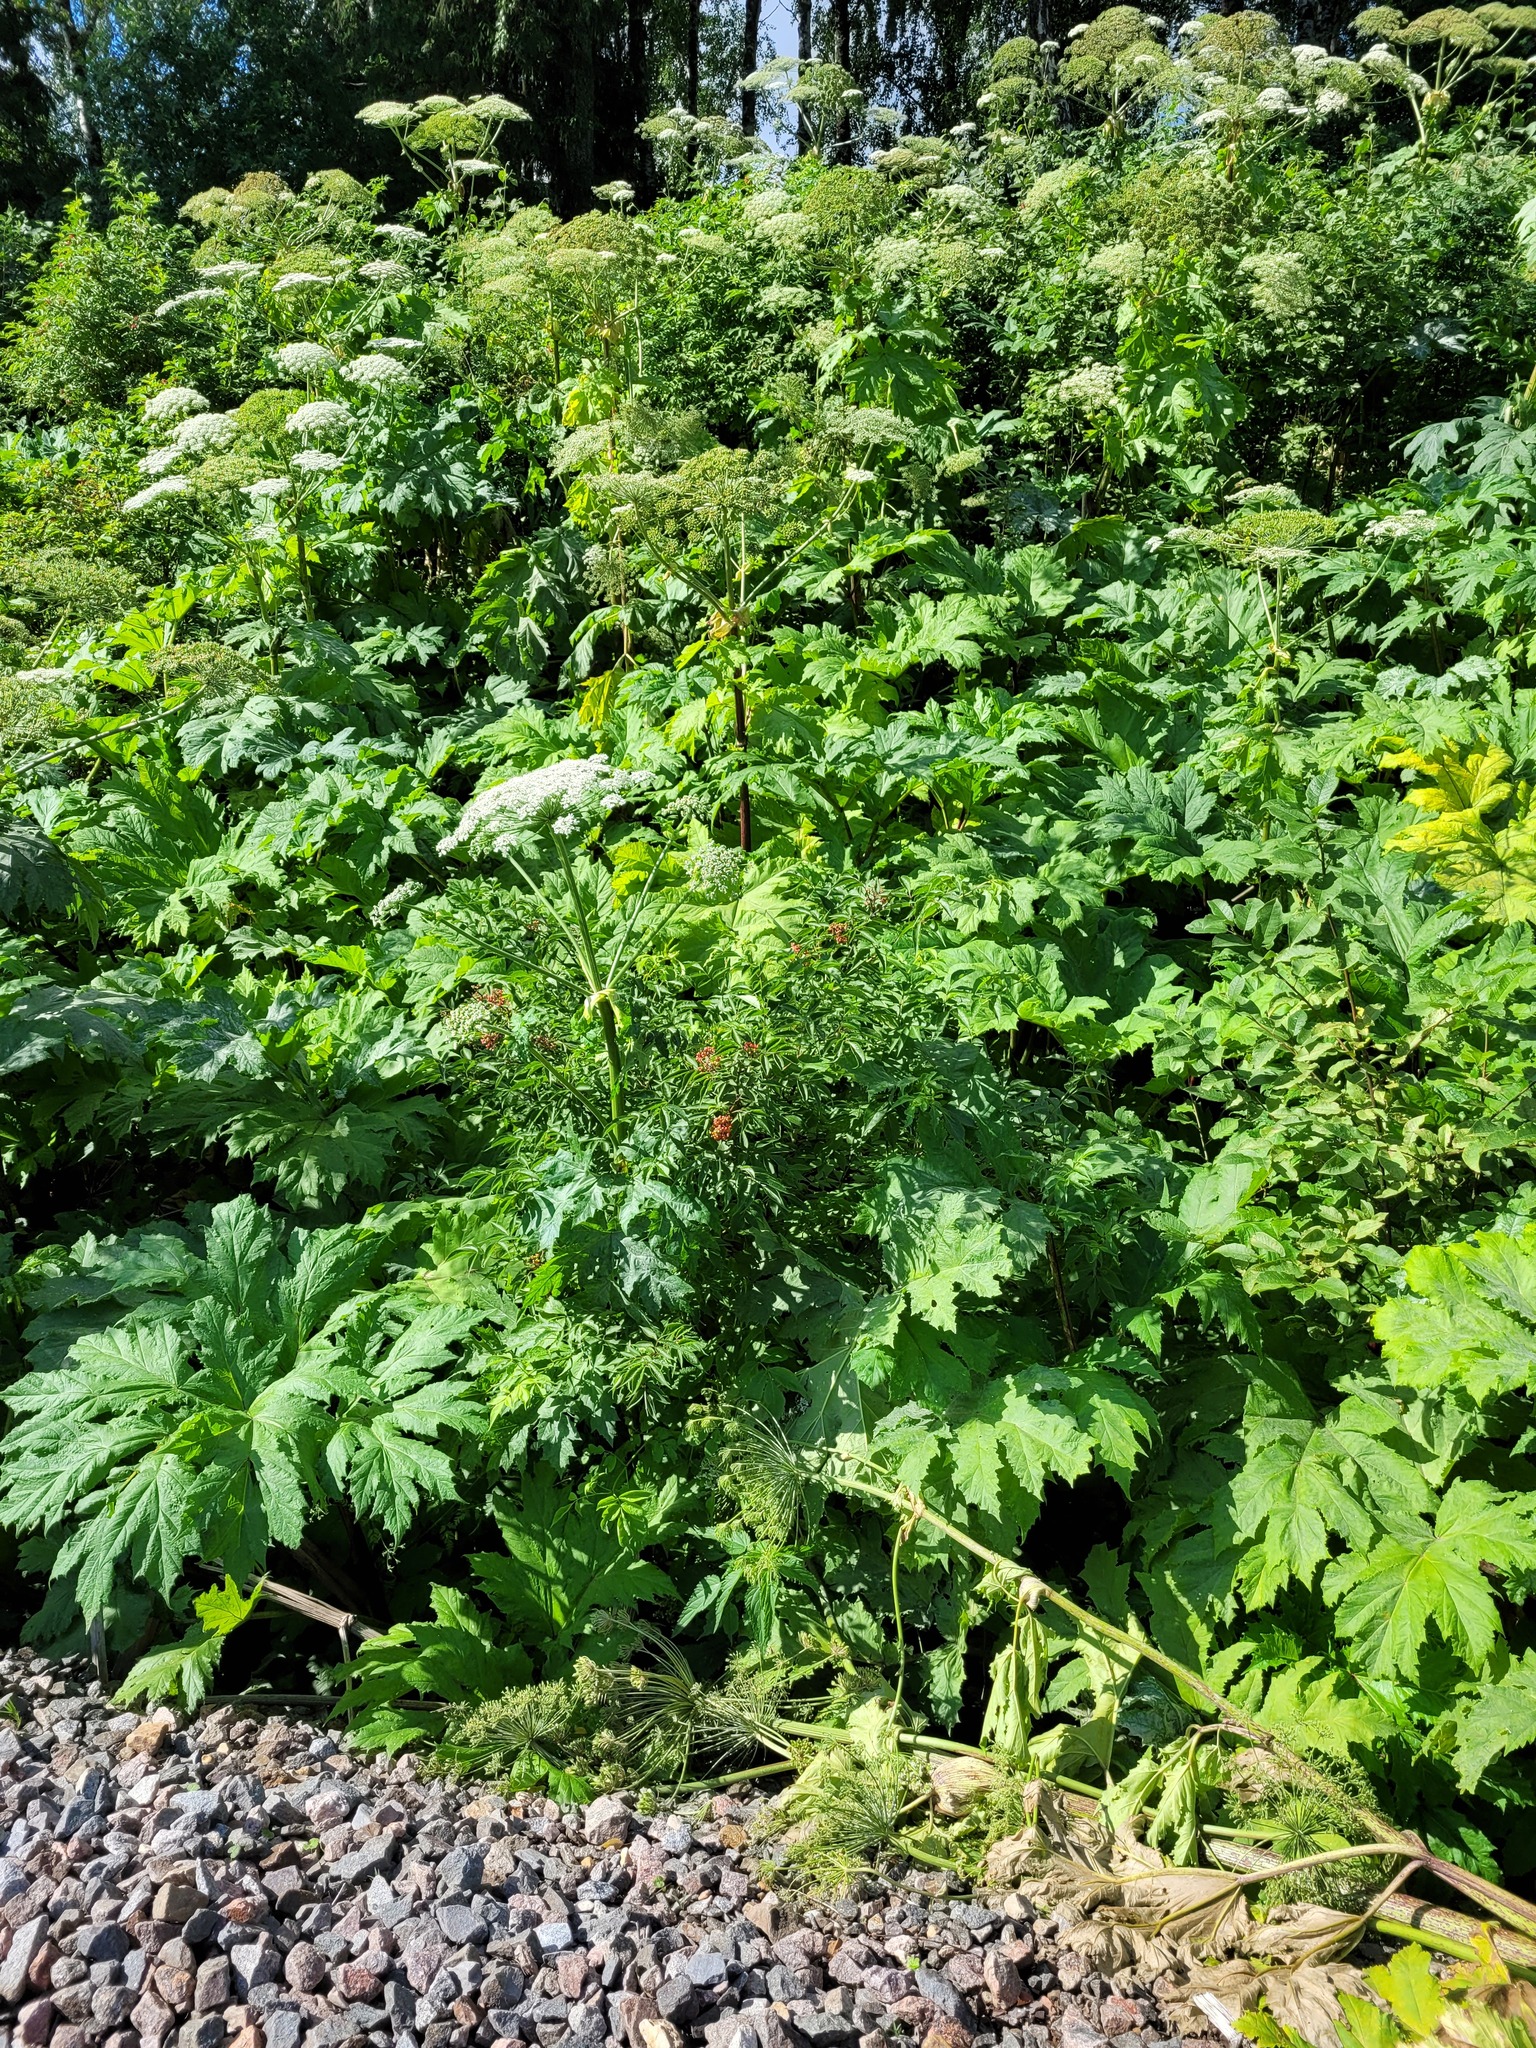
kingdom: Plantae
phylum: Tracheophyta
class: Magnoliopsida
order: Dipsacales
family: Viburnaceae
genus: Sambucus
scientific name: Sambucus racemosa
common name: Red-berried elder
